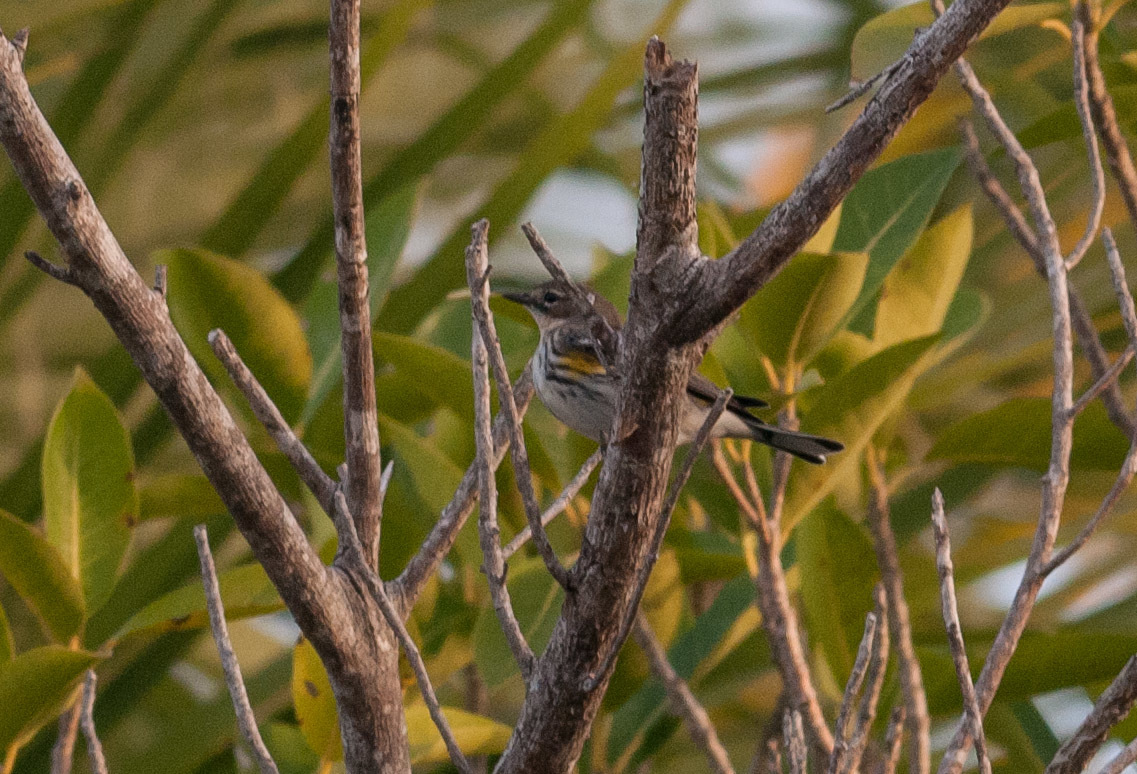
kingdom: Animalia
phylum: Chordata
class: Aves
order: Passeriformes
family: Parulidae
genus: Setophaga
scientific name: Setophaga coronata
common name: Myrtle warbler
